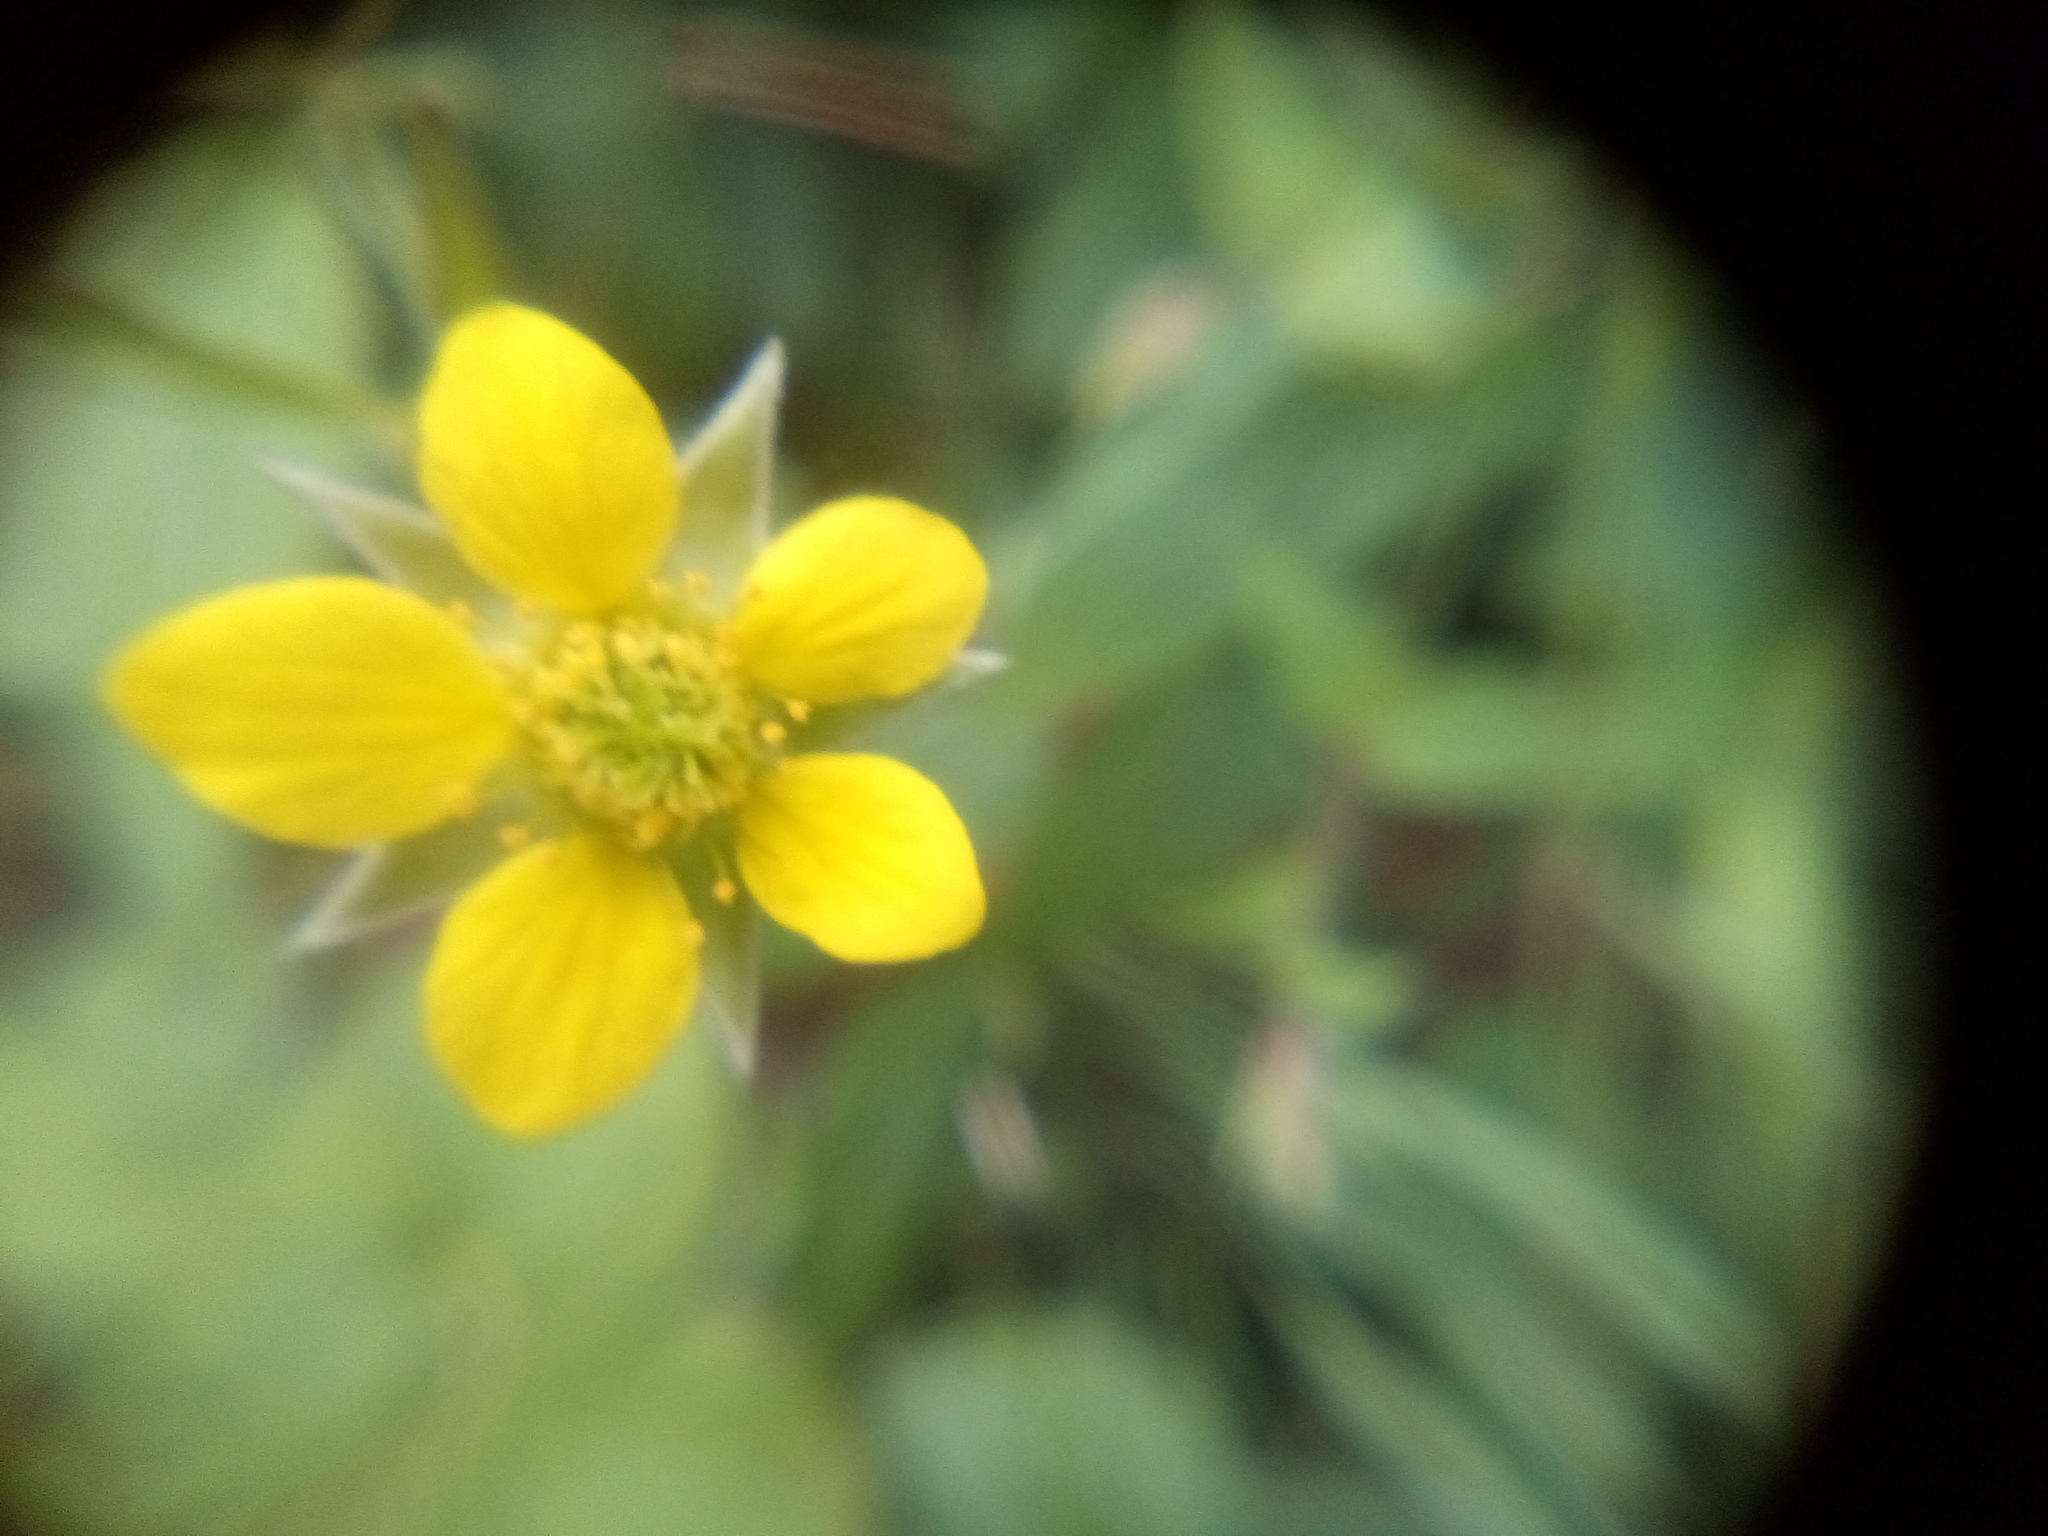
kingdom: Plantae
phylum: Tracheophyta
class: Magnoliopsida
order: Rosales
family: Rosaceae
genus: Geum
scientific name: Geum urbanum
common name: Wood avens
